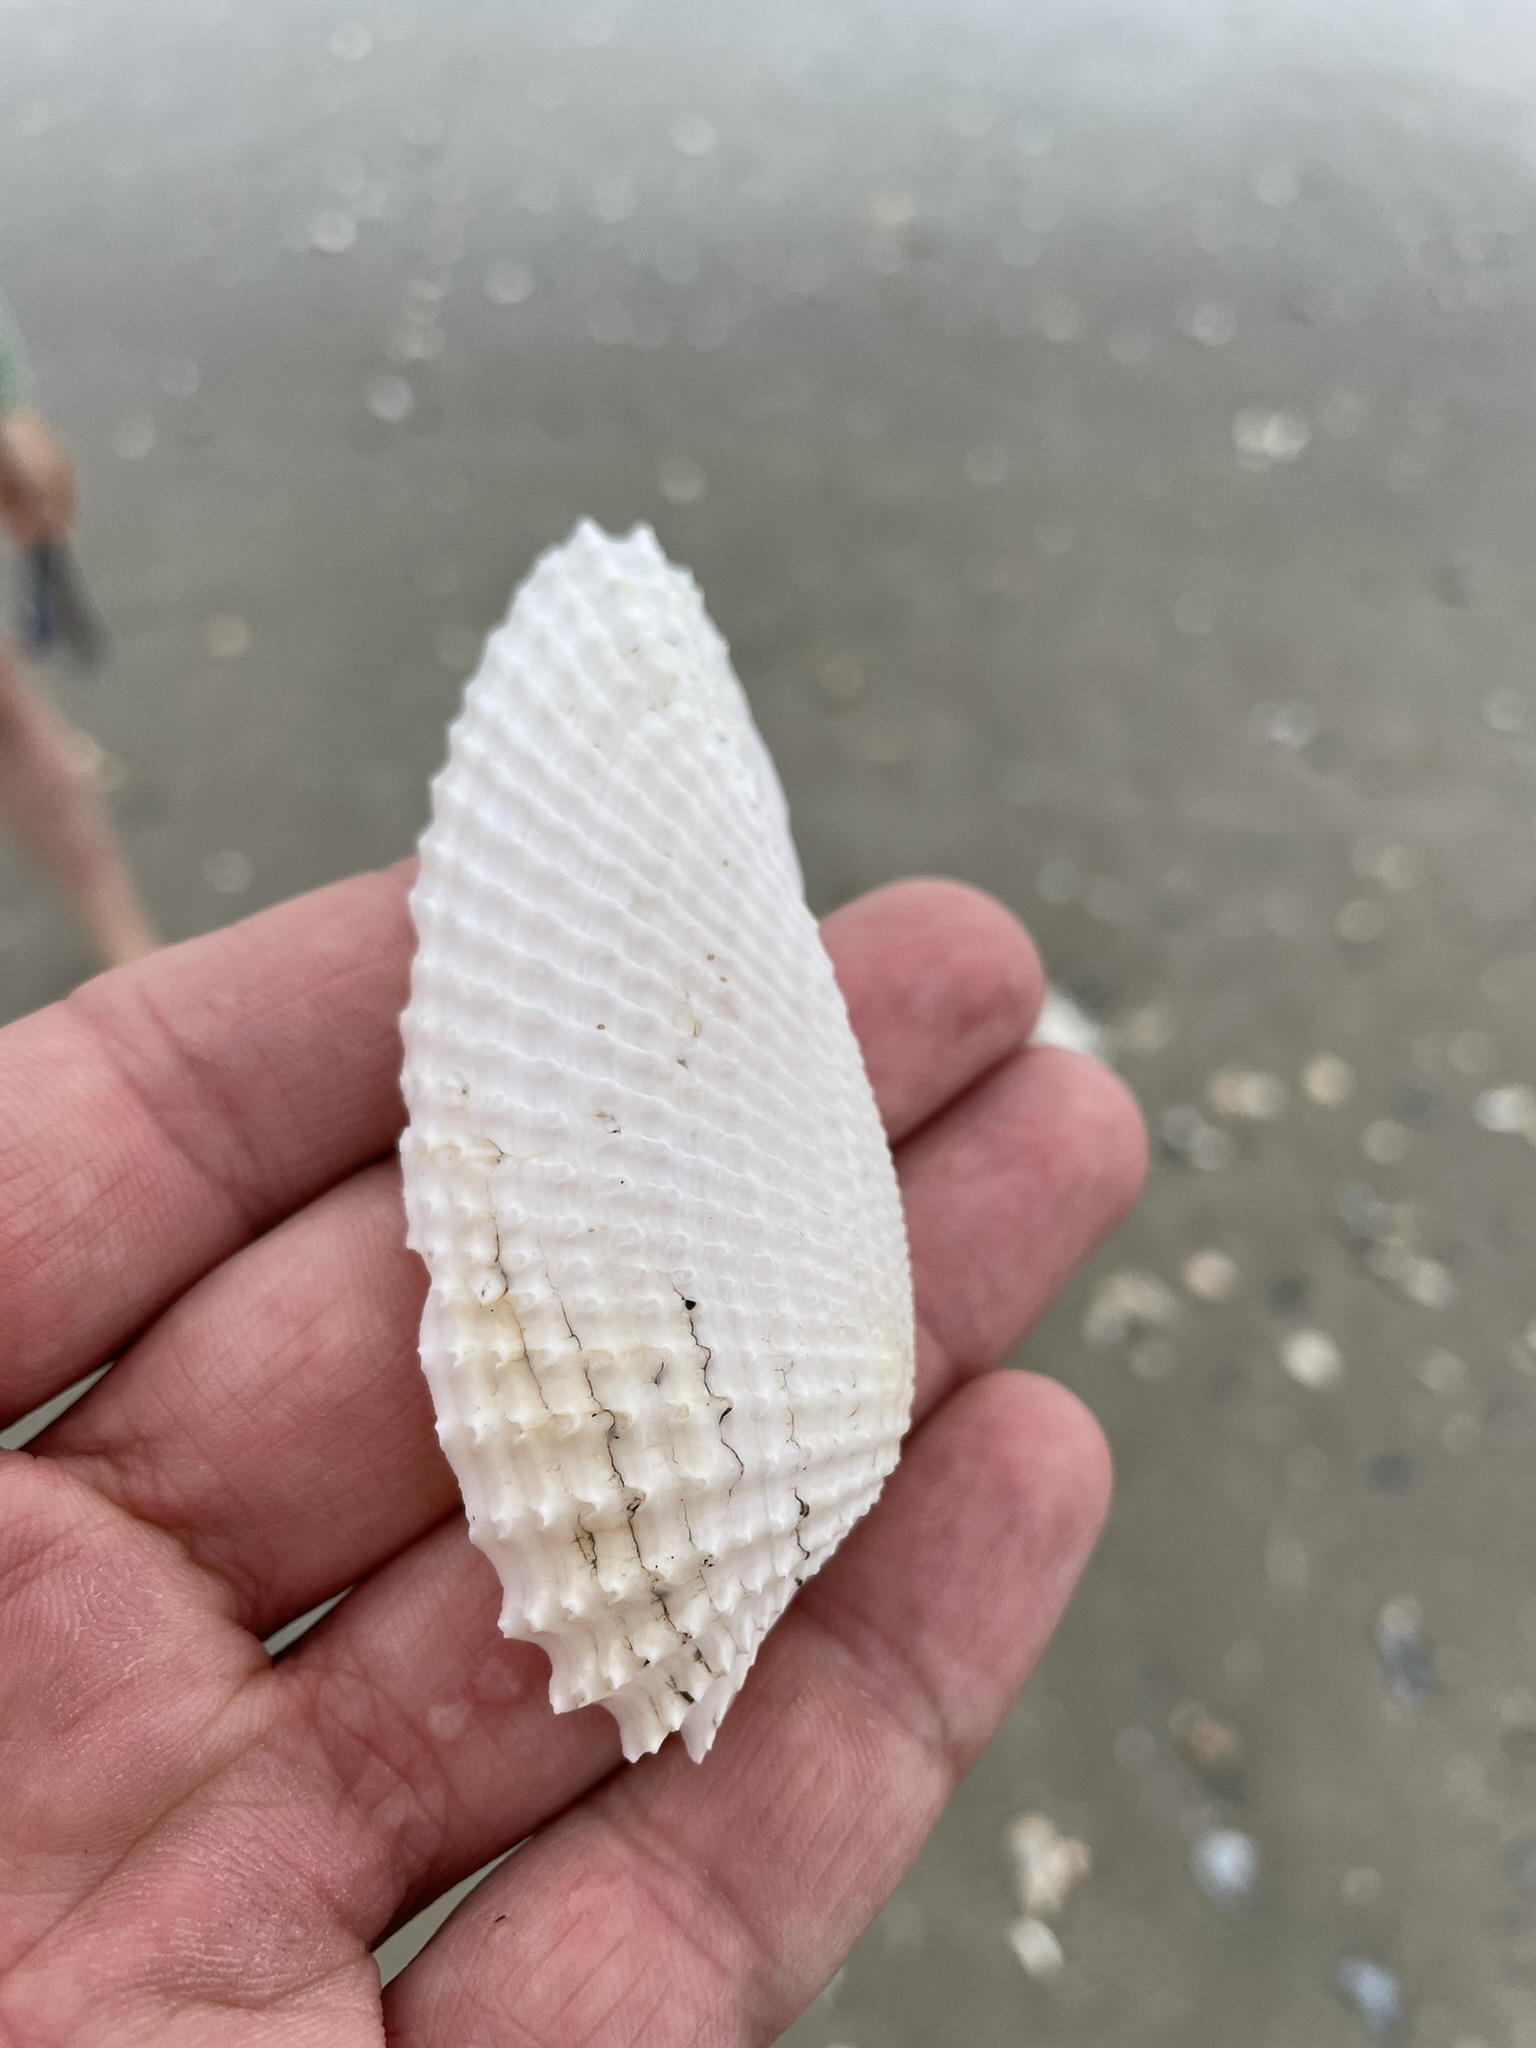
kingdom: Animalia
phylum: Mollusca
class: Bivalvia
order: Myida
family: Pholadidae
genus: Cyrtopleura
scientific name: Cyrtopleura costata
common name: Angel wing
